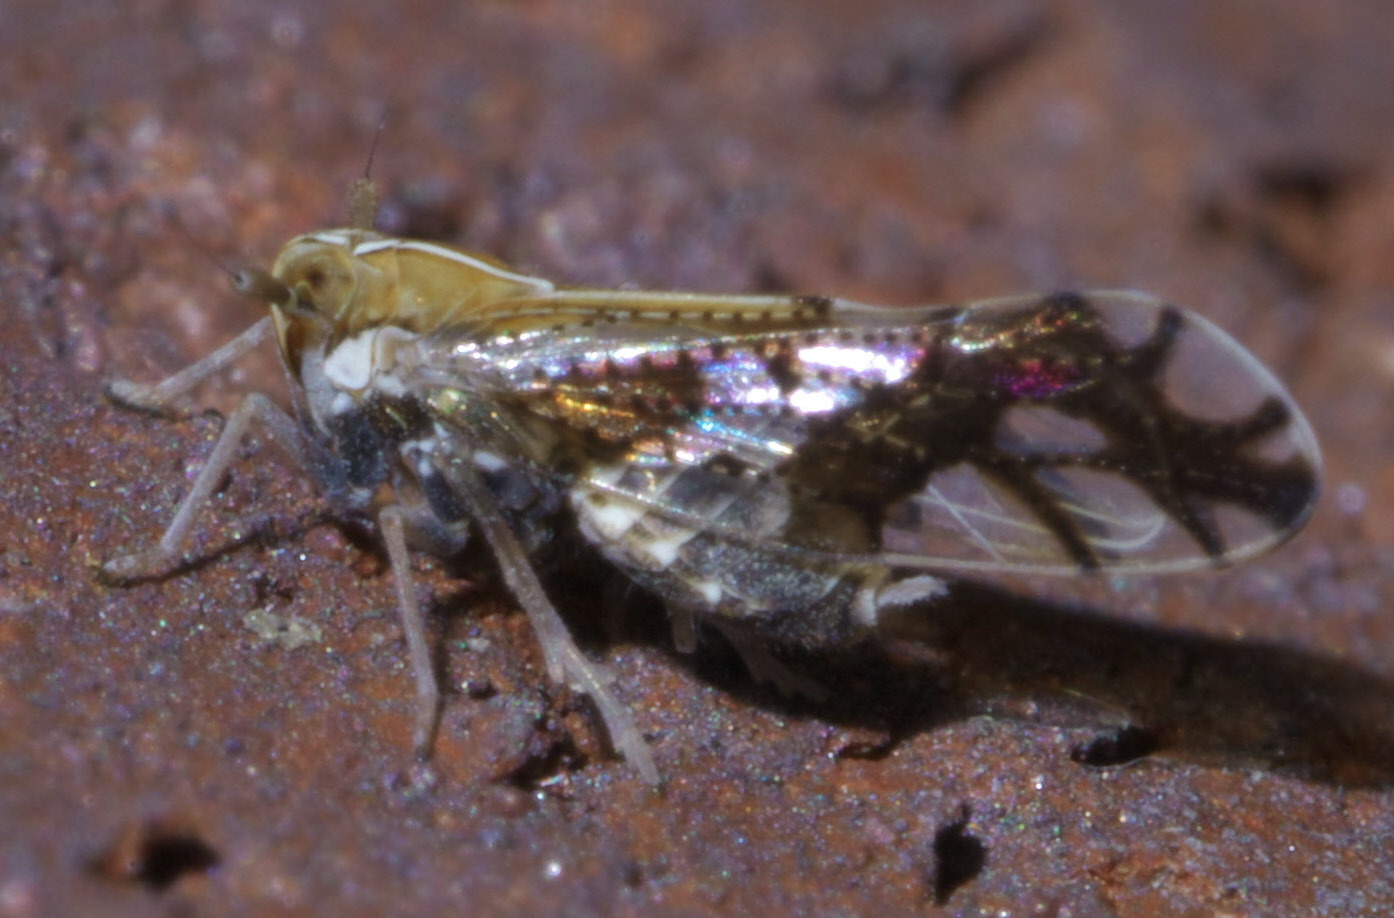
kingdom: Animalia
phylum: Arthropoda
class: Insecta
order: Hemiptera
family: Delphacidae
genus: Liburniella
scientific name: Liburniella ornata
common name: Ornate planthopper
